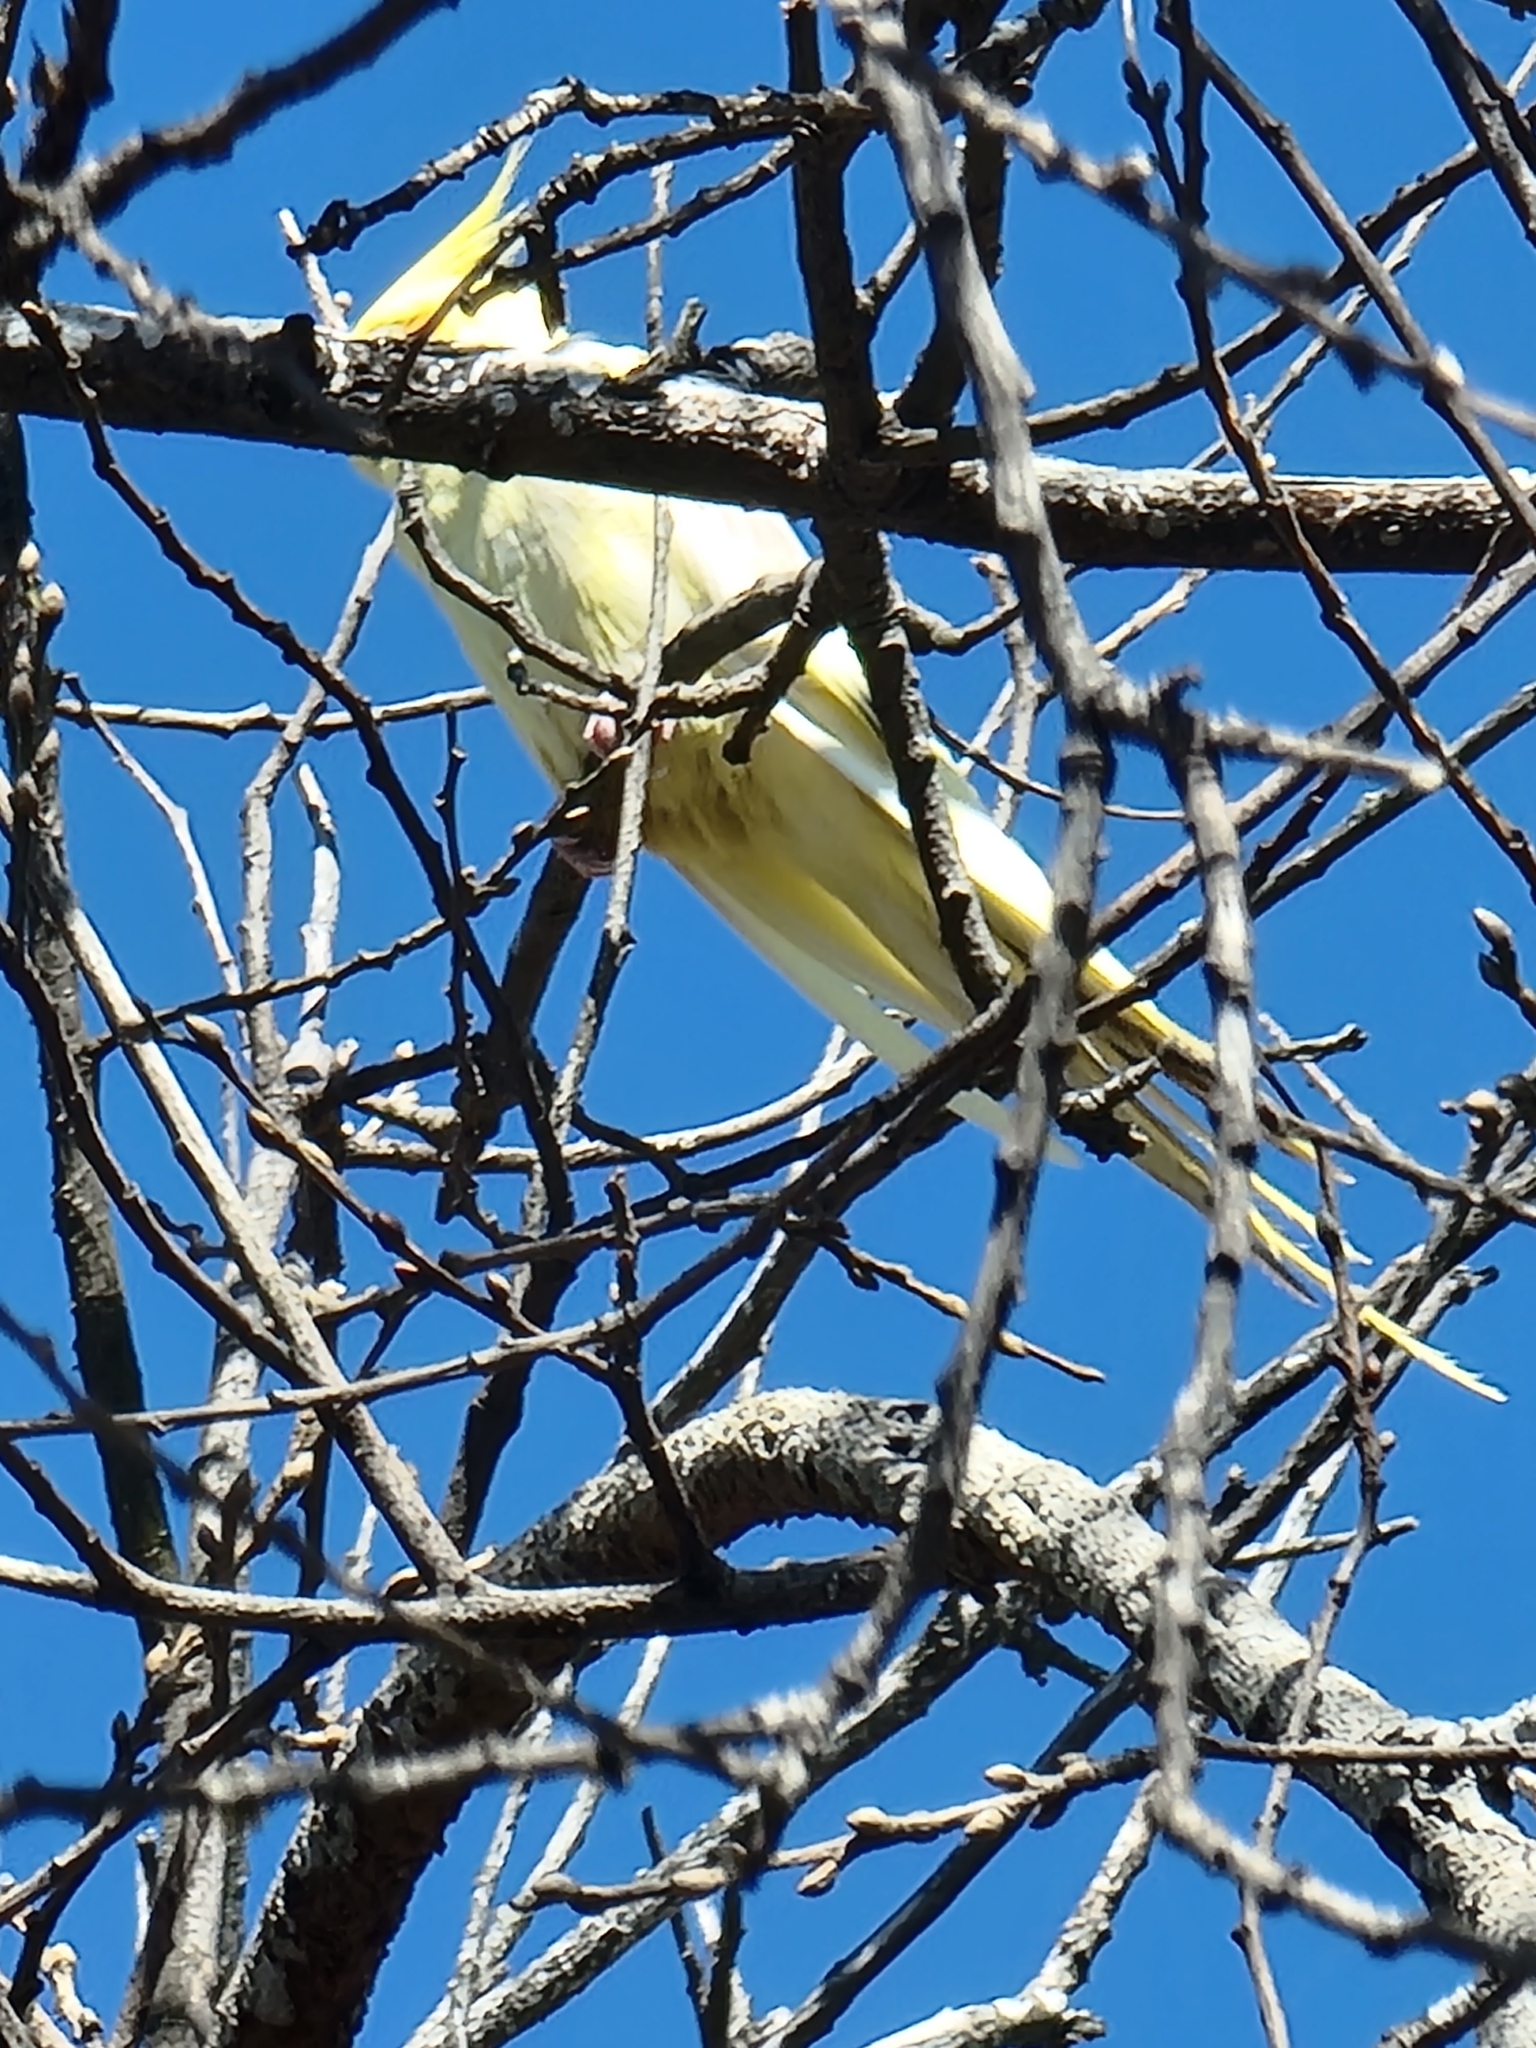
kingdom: Animalia
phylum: Chordata
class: Aves
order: Psittaciformes
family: Psittacidae
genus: Nymphicus
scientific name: Nymphicus hollandicus
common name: Cockatiel
